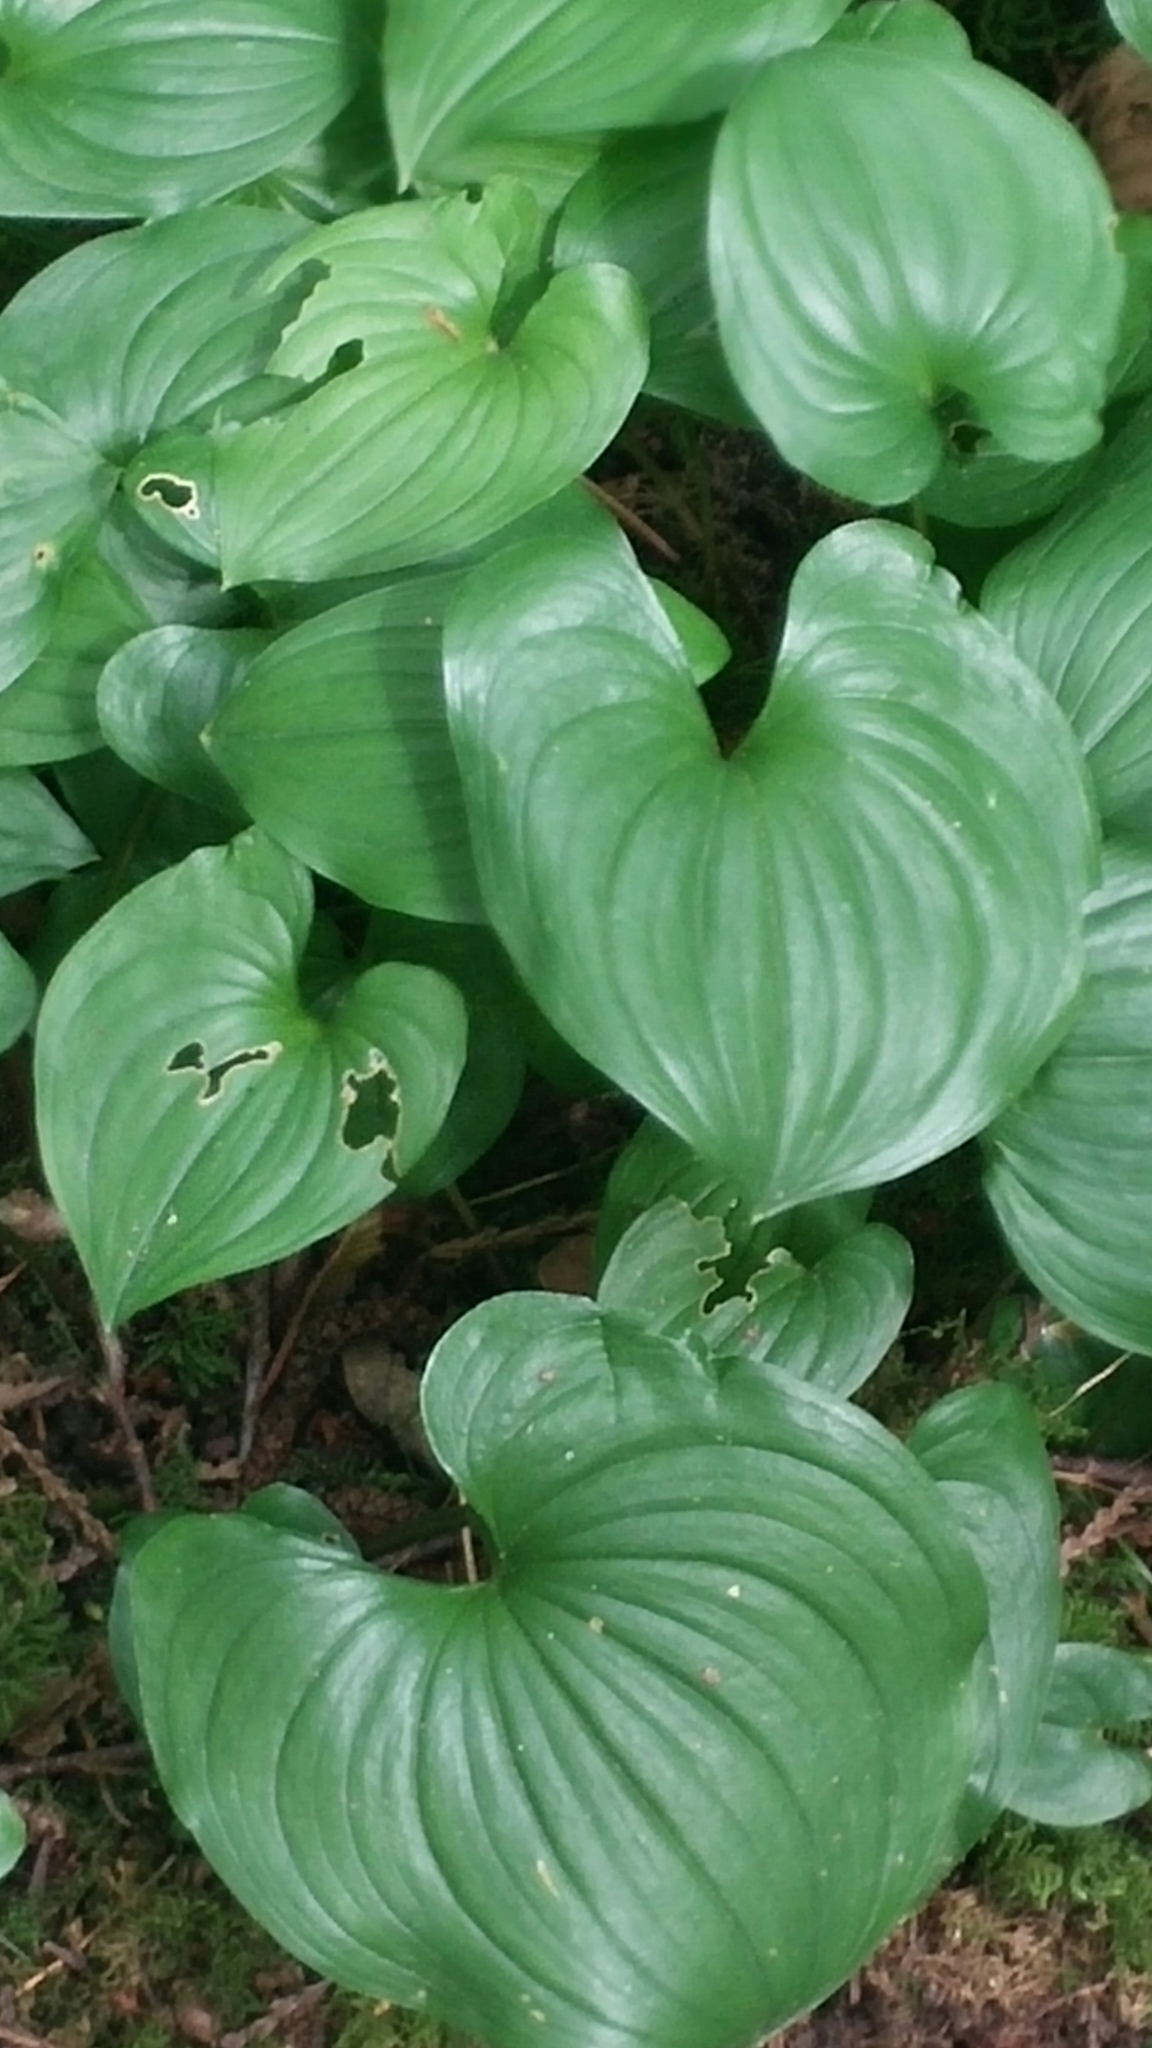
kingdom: Plantae
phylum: Tracheophyta
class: Liliopsida
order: Asparagales
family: Asparagaceae
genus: Maianthemum
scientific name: Maianthemum dilatatum
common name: False lily-of-the-valley
